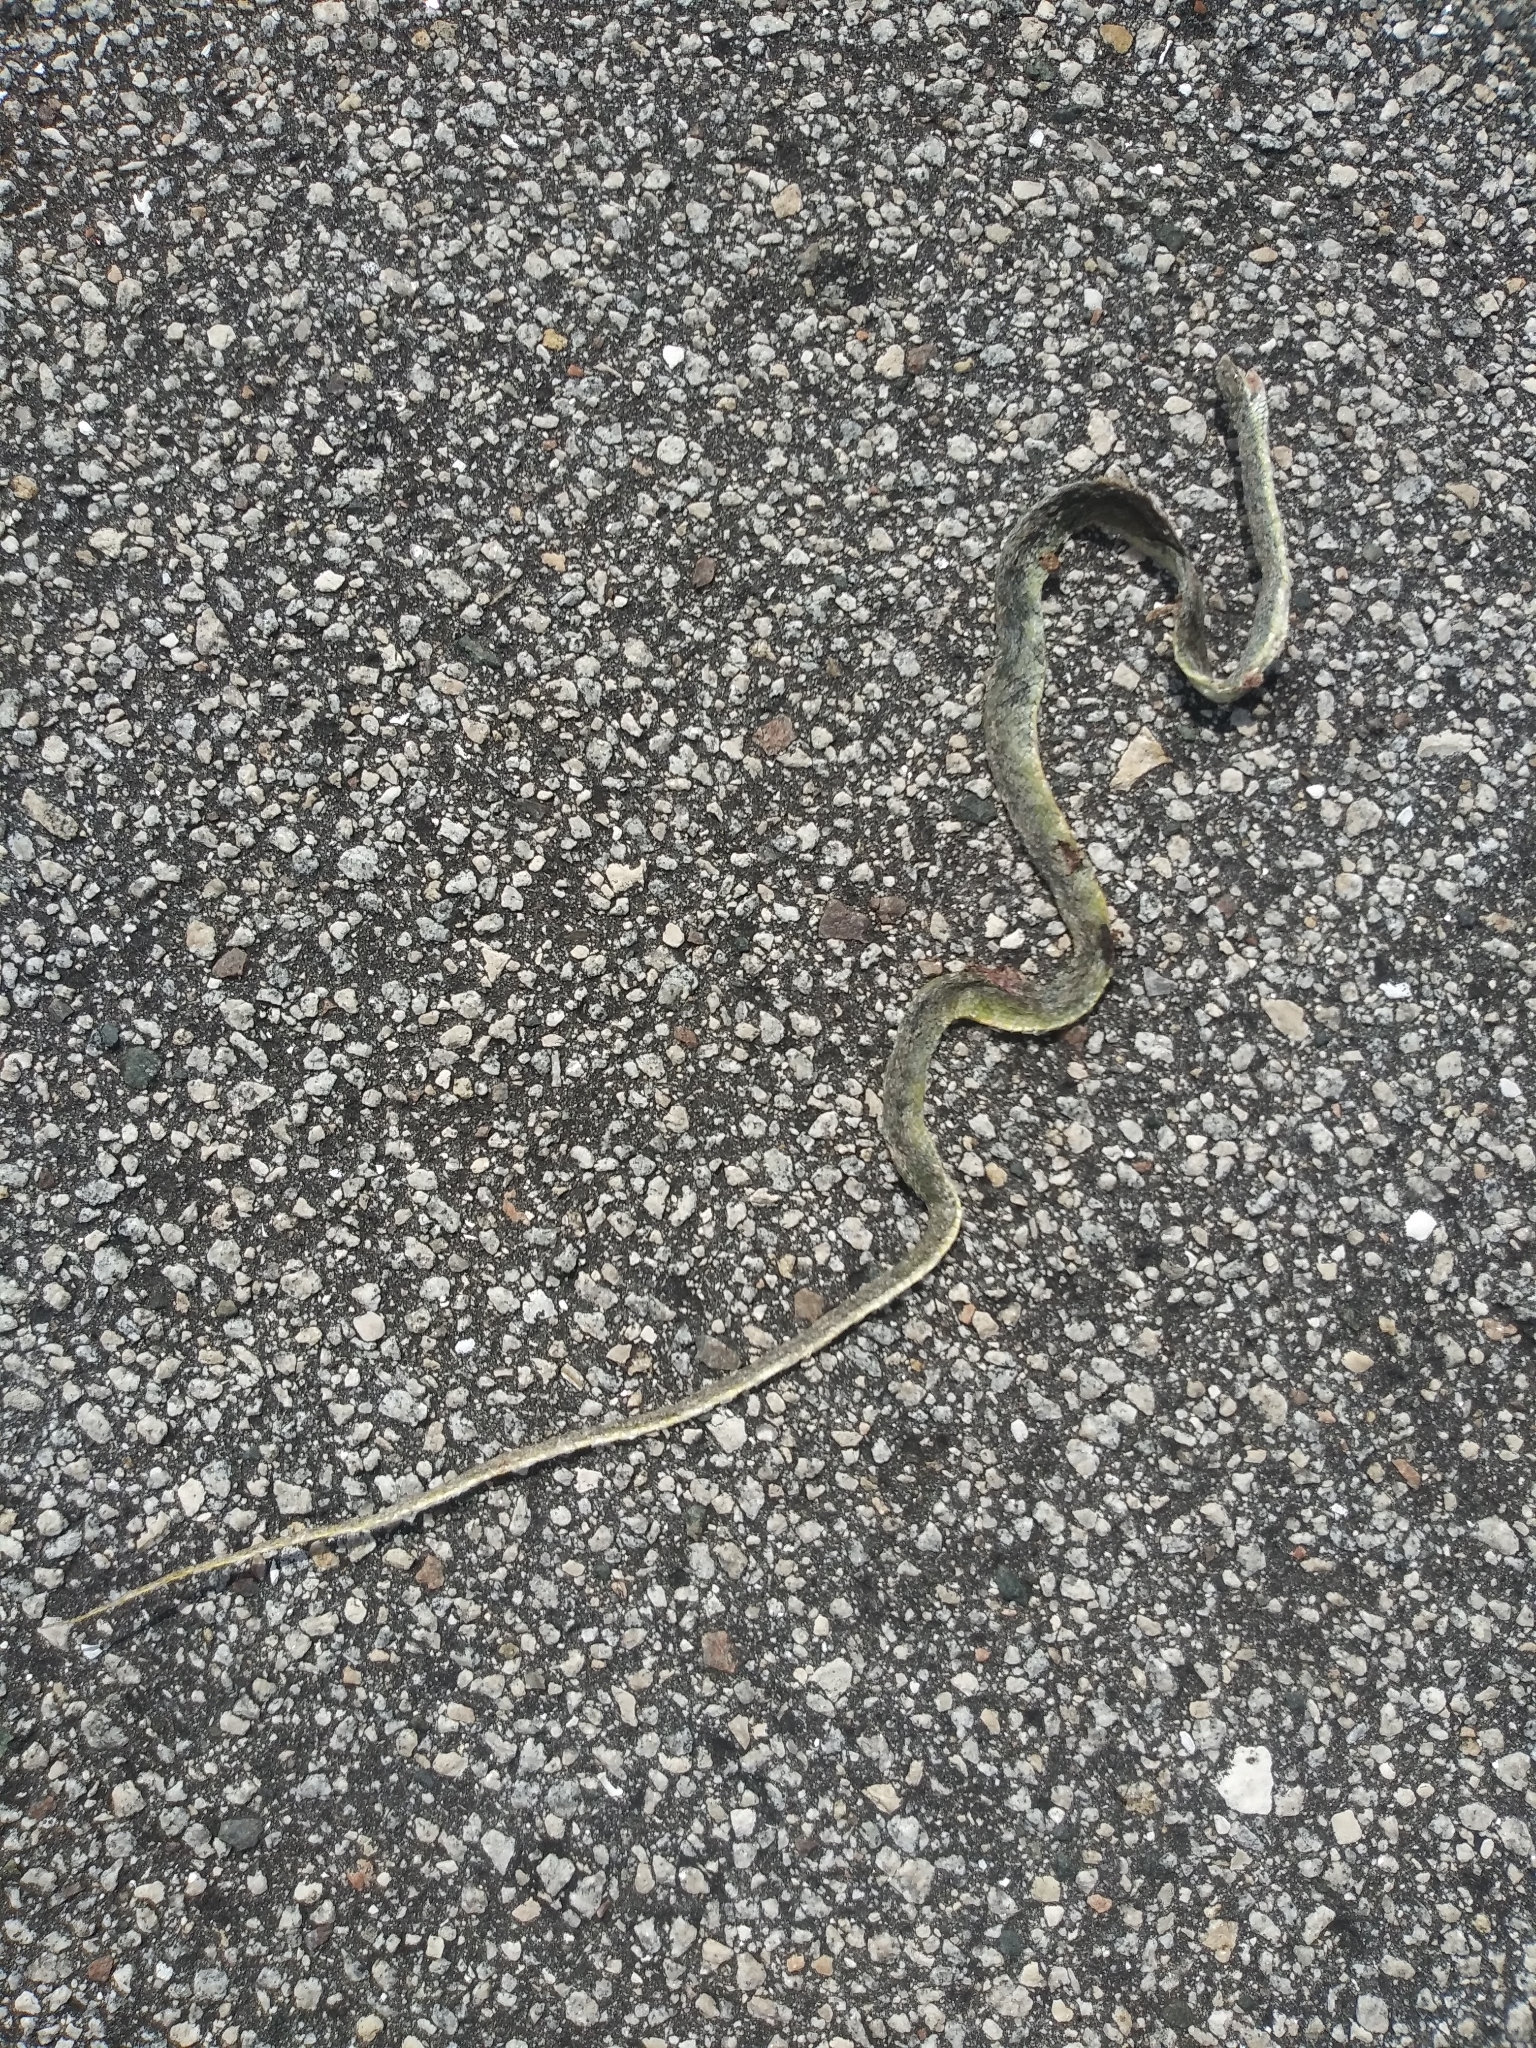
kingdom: Animalia
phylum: Chordata
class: Squamata
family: Colubridae
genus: Opheodrys
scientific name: Opheodrys aestivus
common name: Rough greensnake
